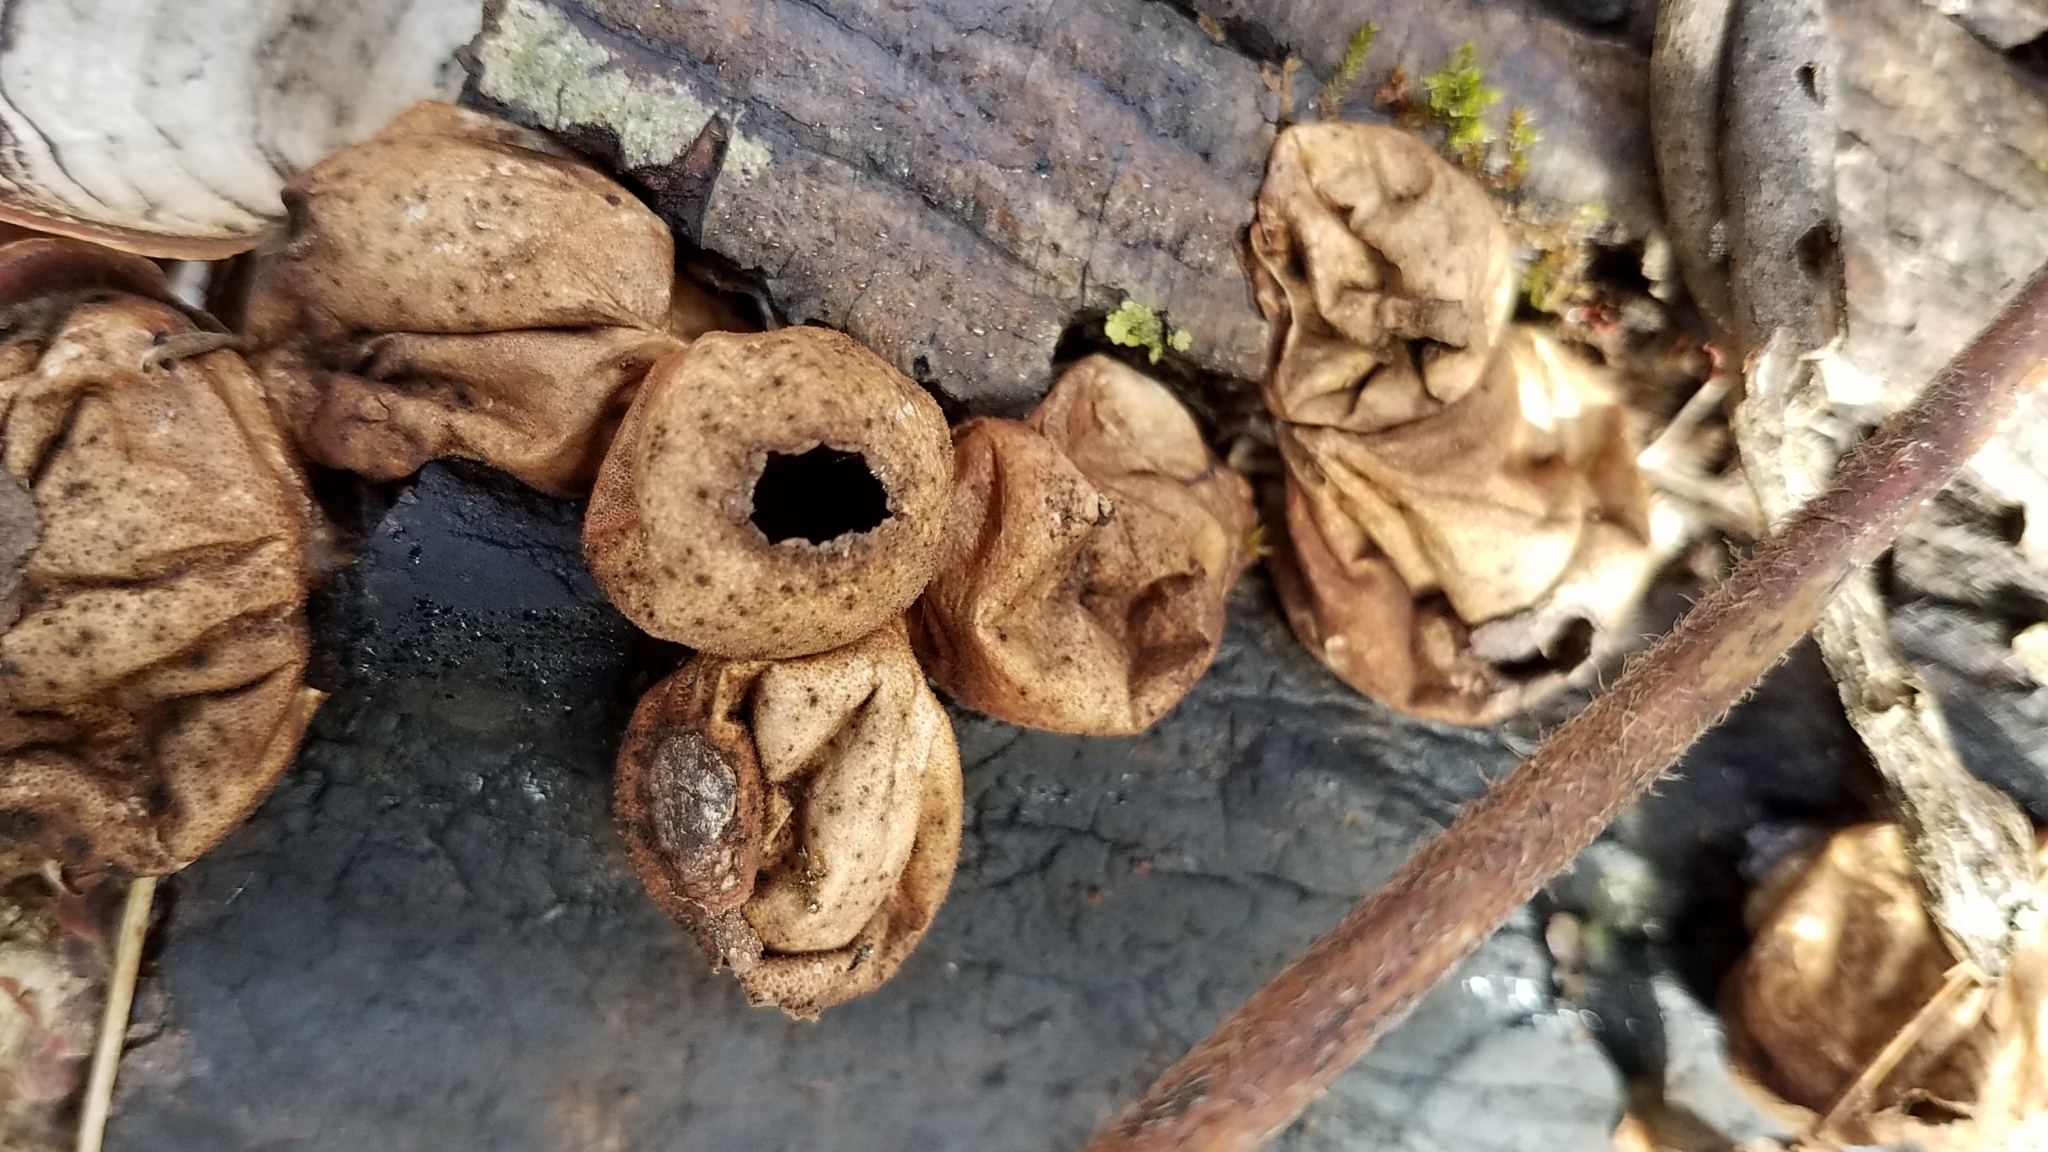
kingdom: Fungi
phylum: Basidiomycota
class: Agaricomycetes
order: Agaricales
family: Lycoperdaceae
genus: Apioperdon
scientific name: Apioperdon pyriforme
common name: Pear-shaped puffball
